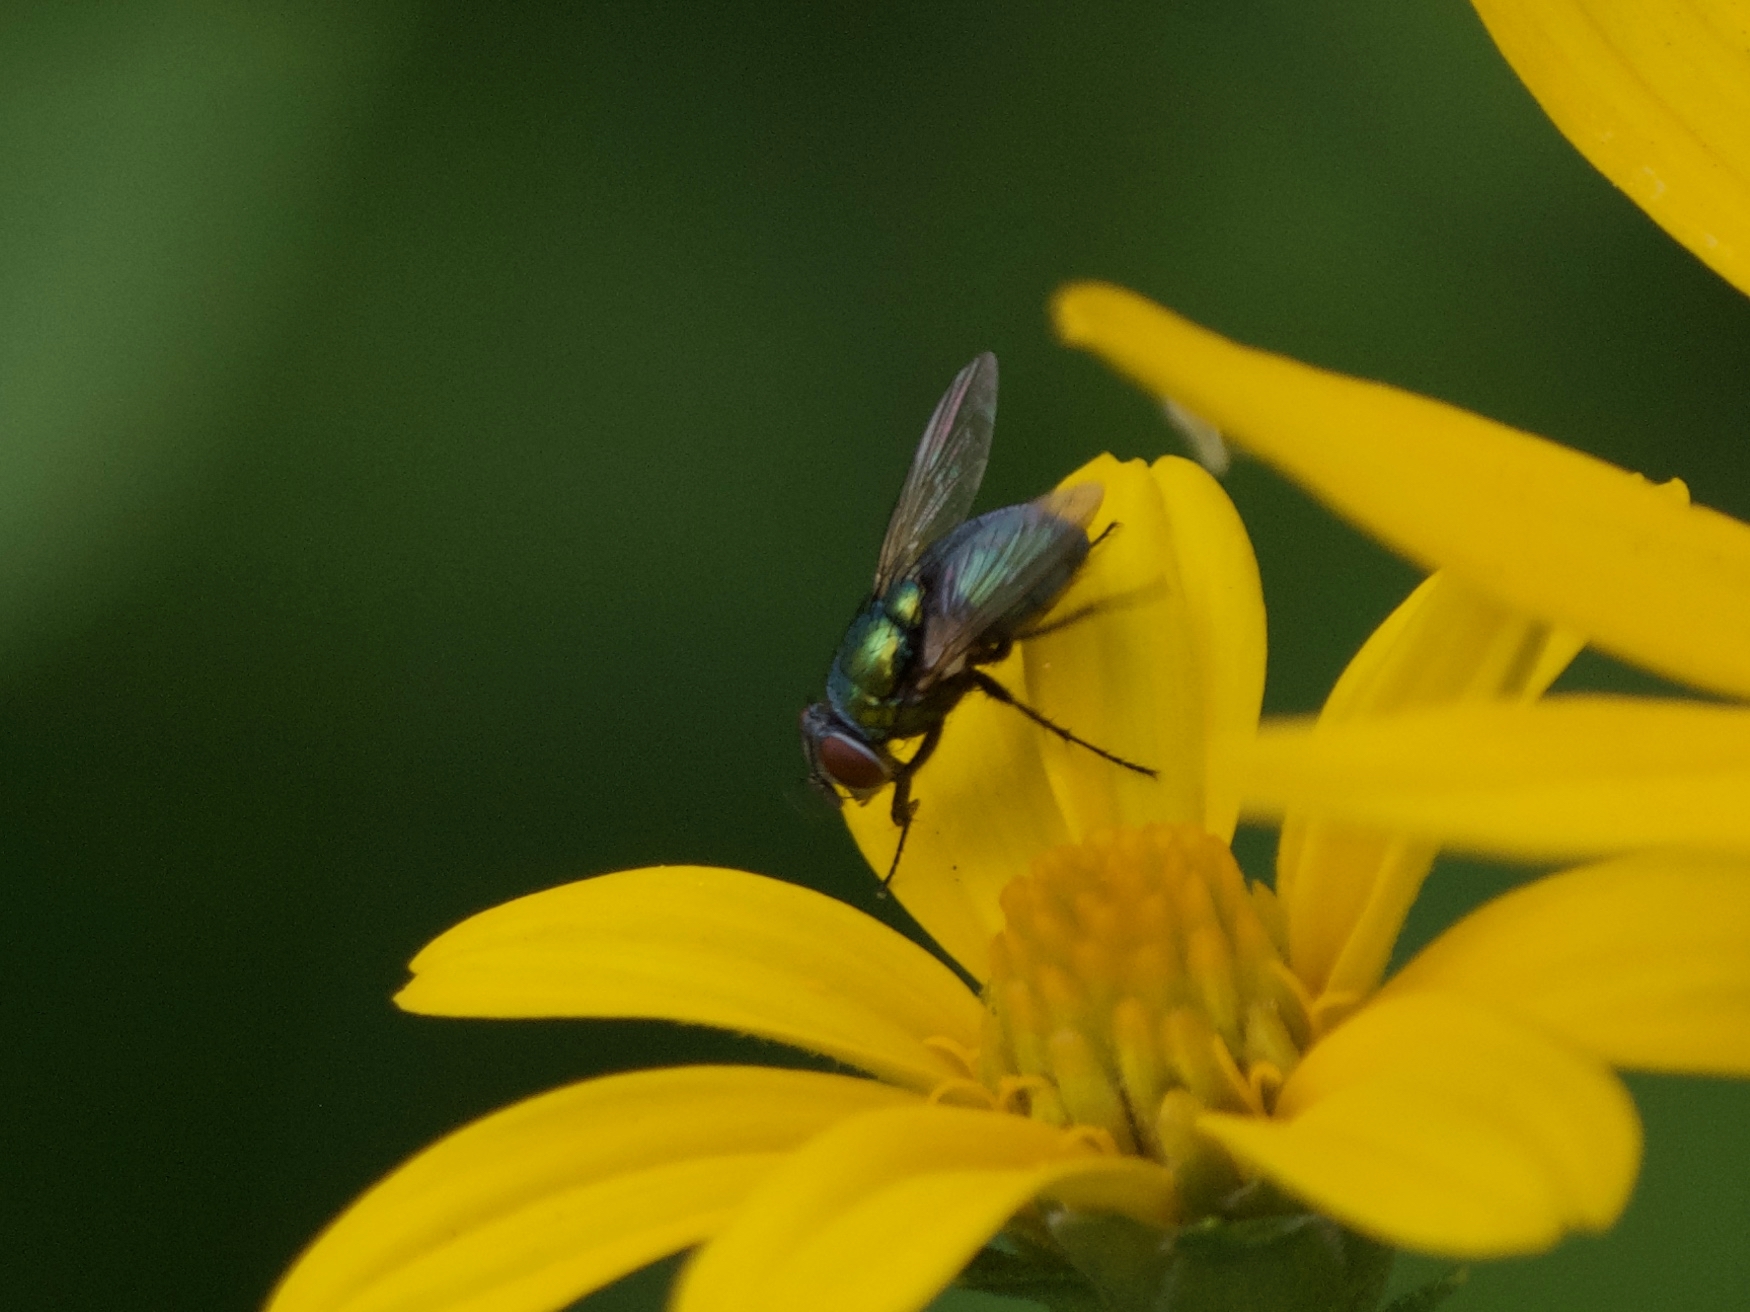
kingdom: Animalia
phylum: Arthropoda
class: Insecta
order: Diptera
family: Calliphoridae
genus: Lucilia
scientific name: Lucilia sericata
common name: Blow fly
